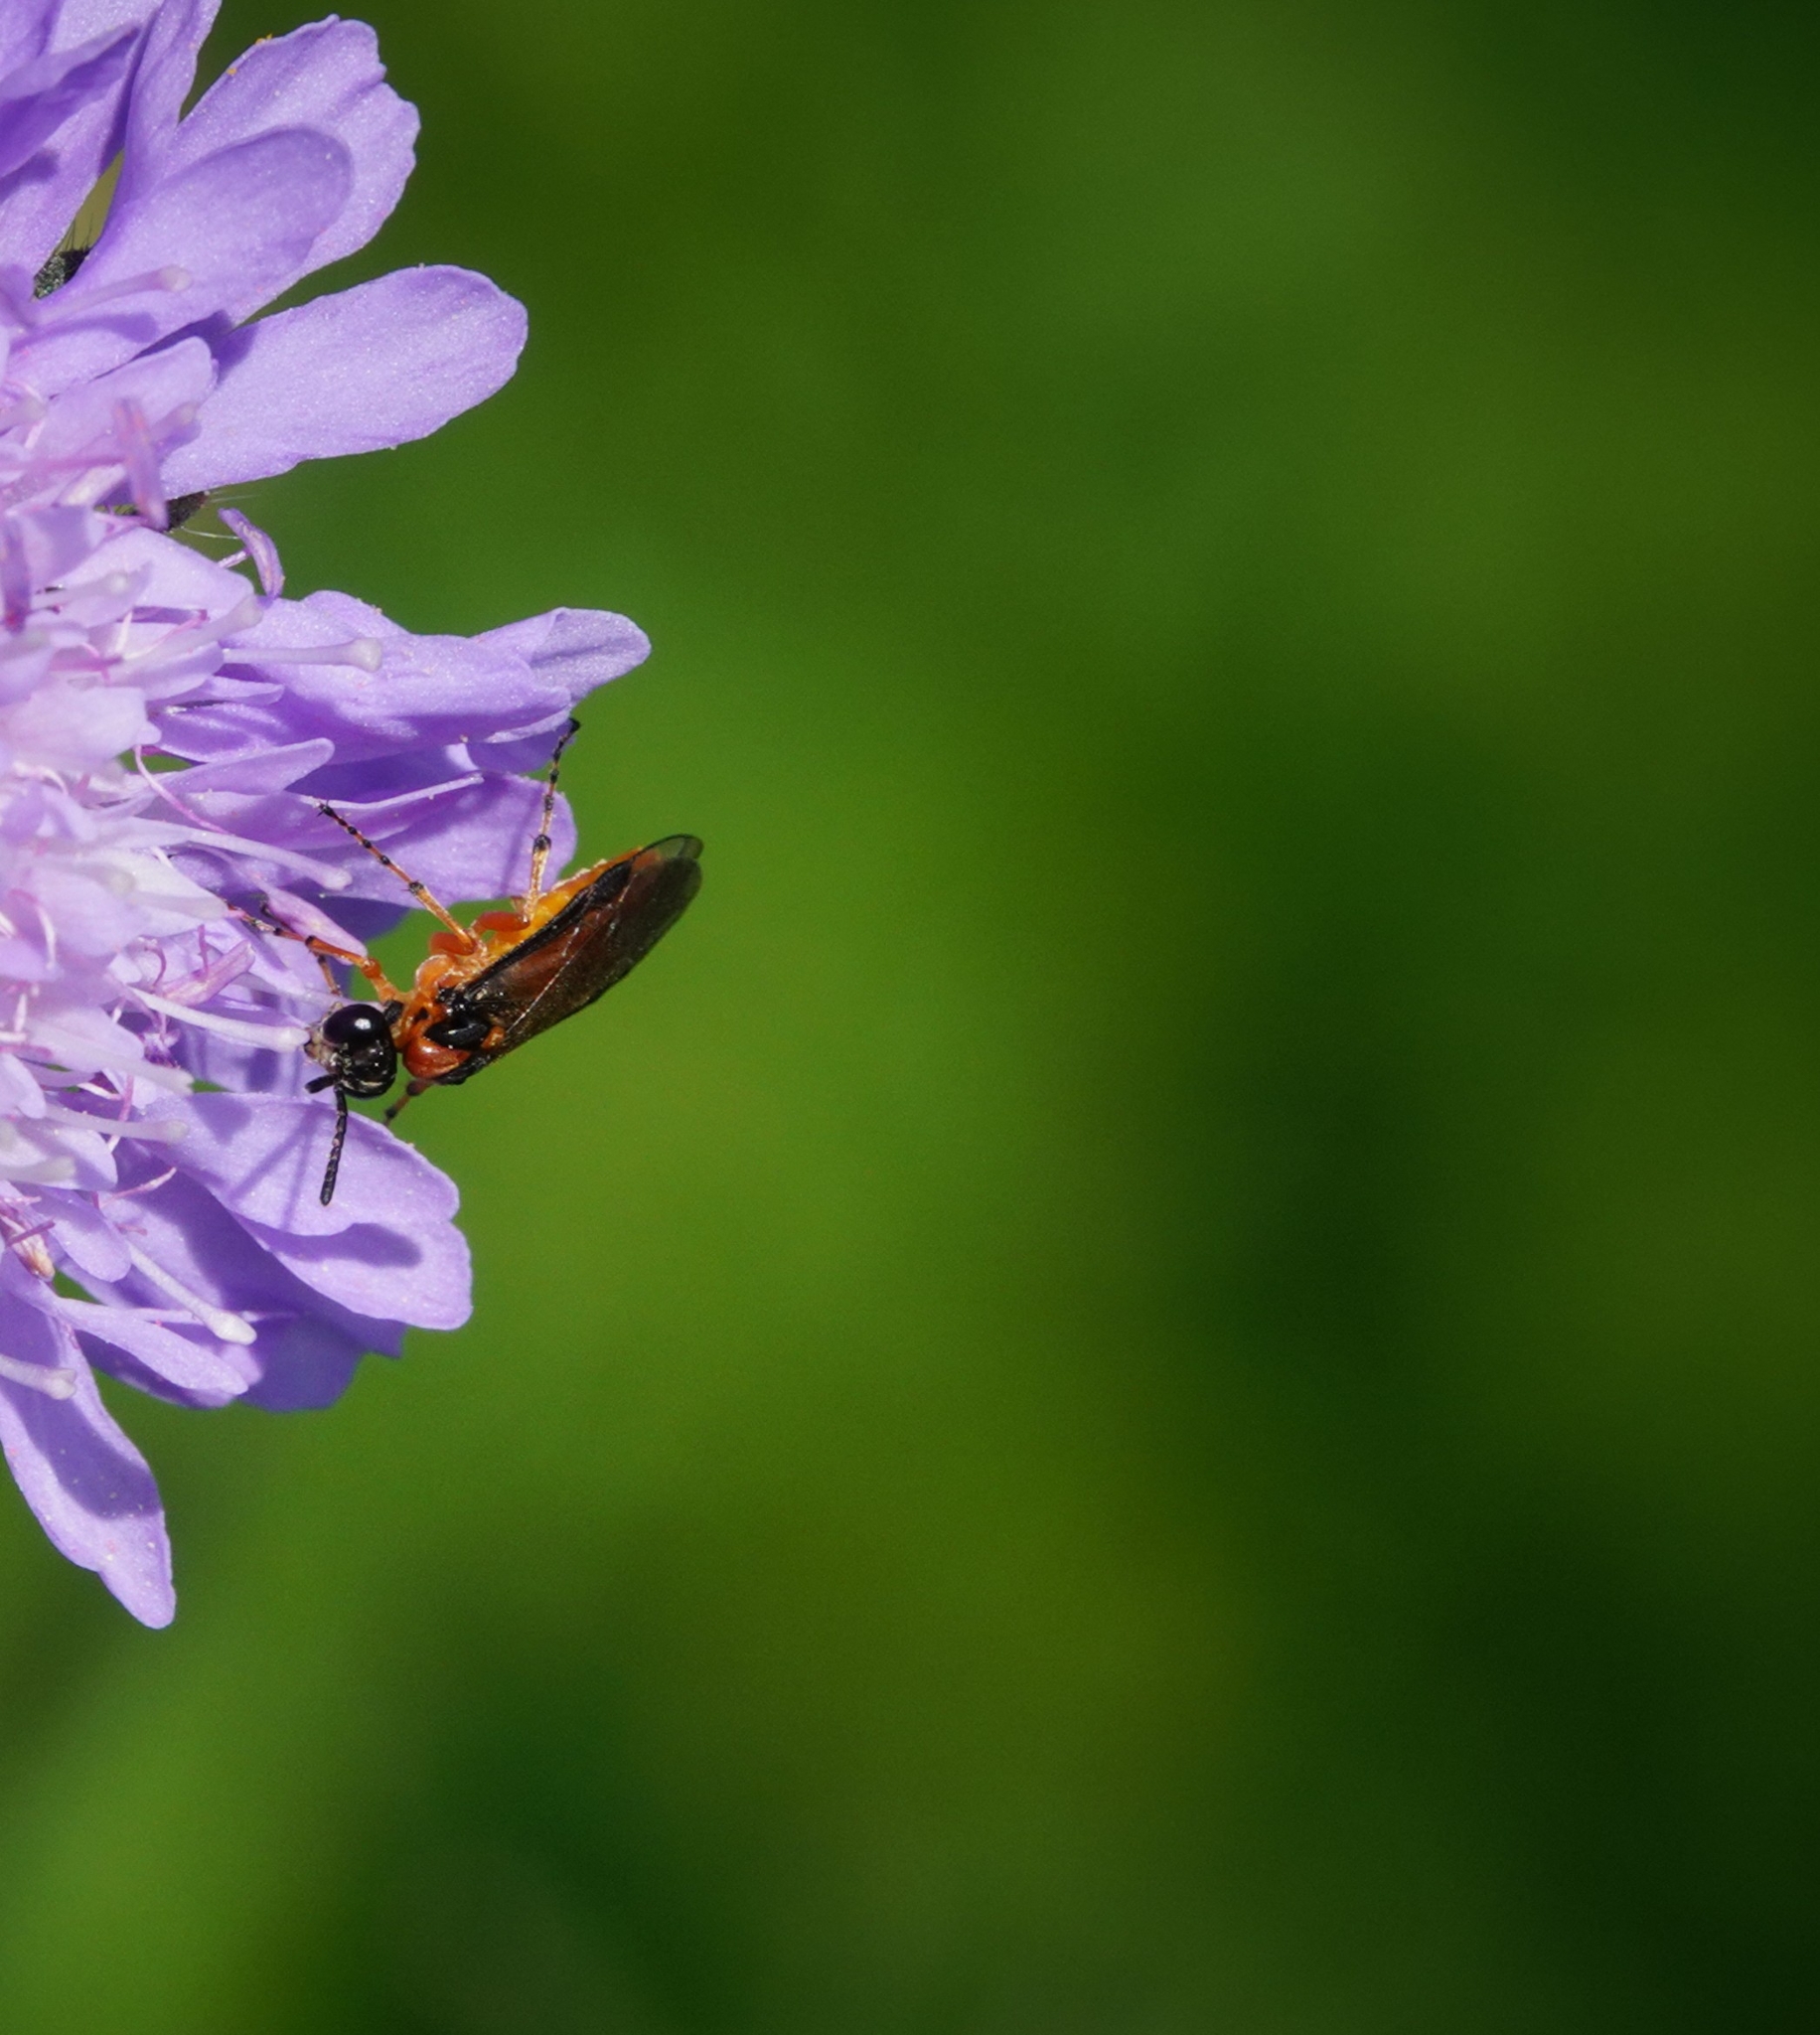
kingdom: Animalia
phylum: Arthropoda
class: Insecta
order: Hymenoptera
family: Tenthredinidae
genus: Athalia
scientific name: Athalia rosae
